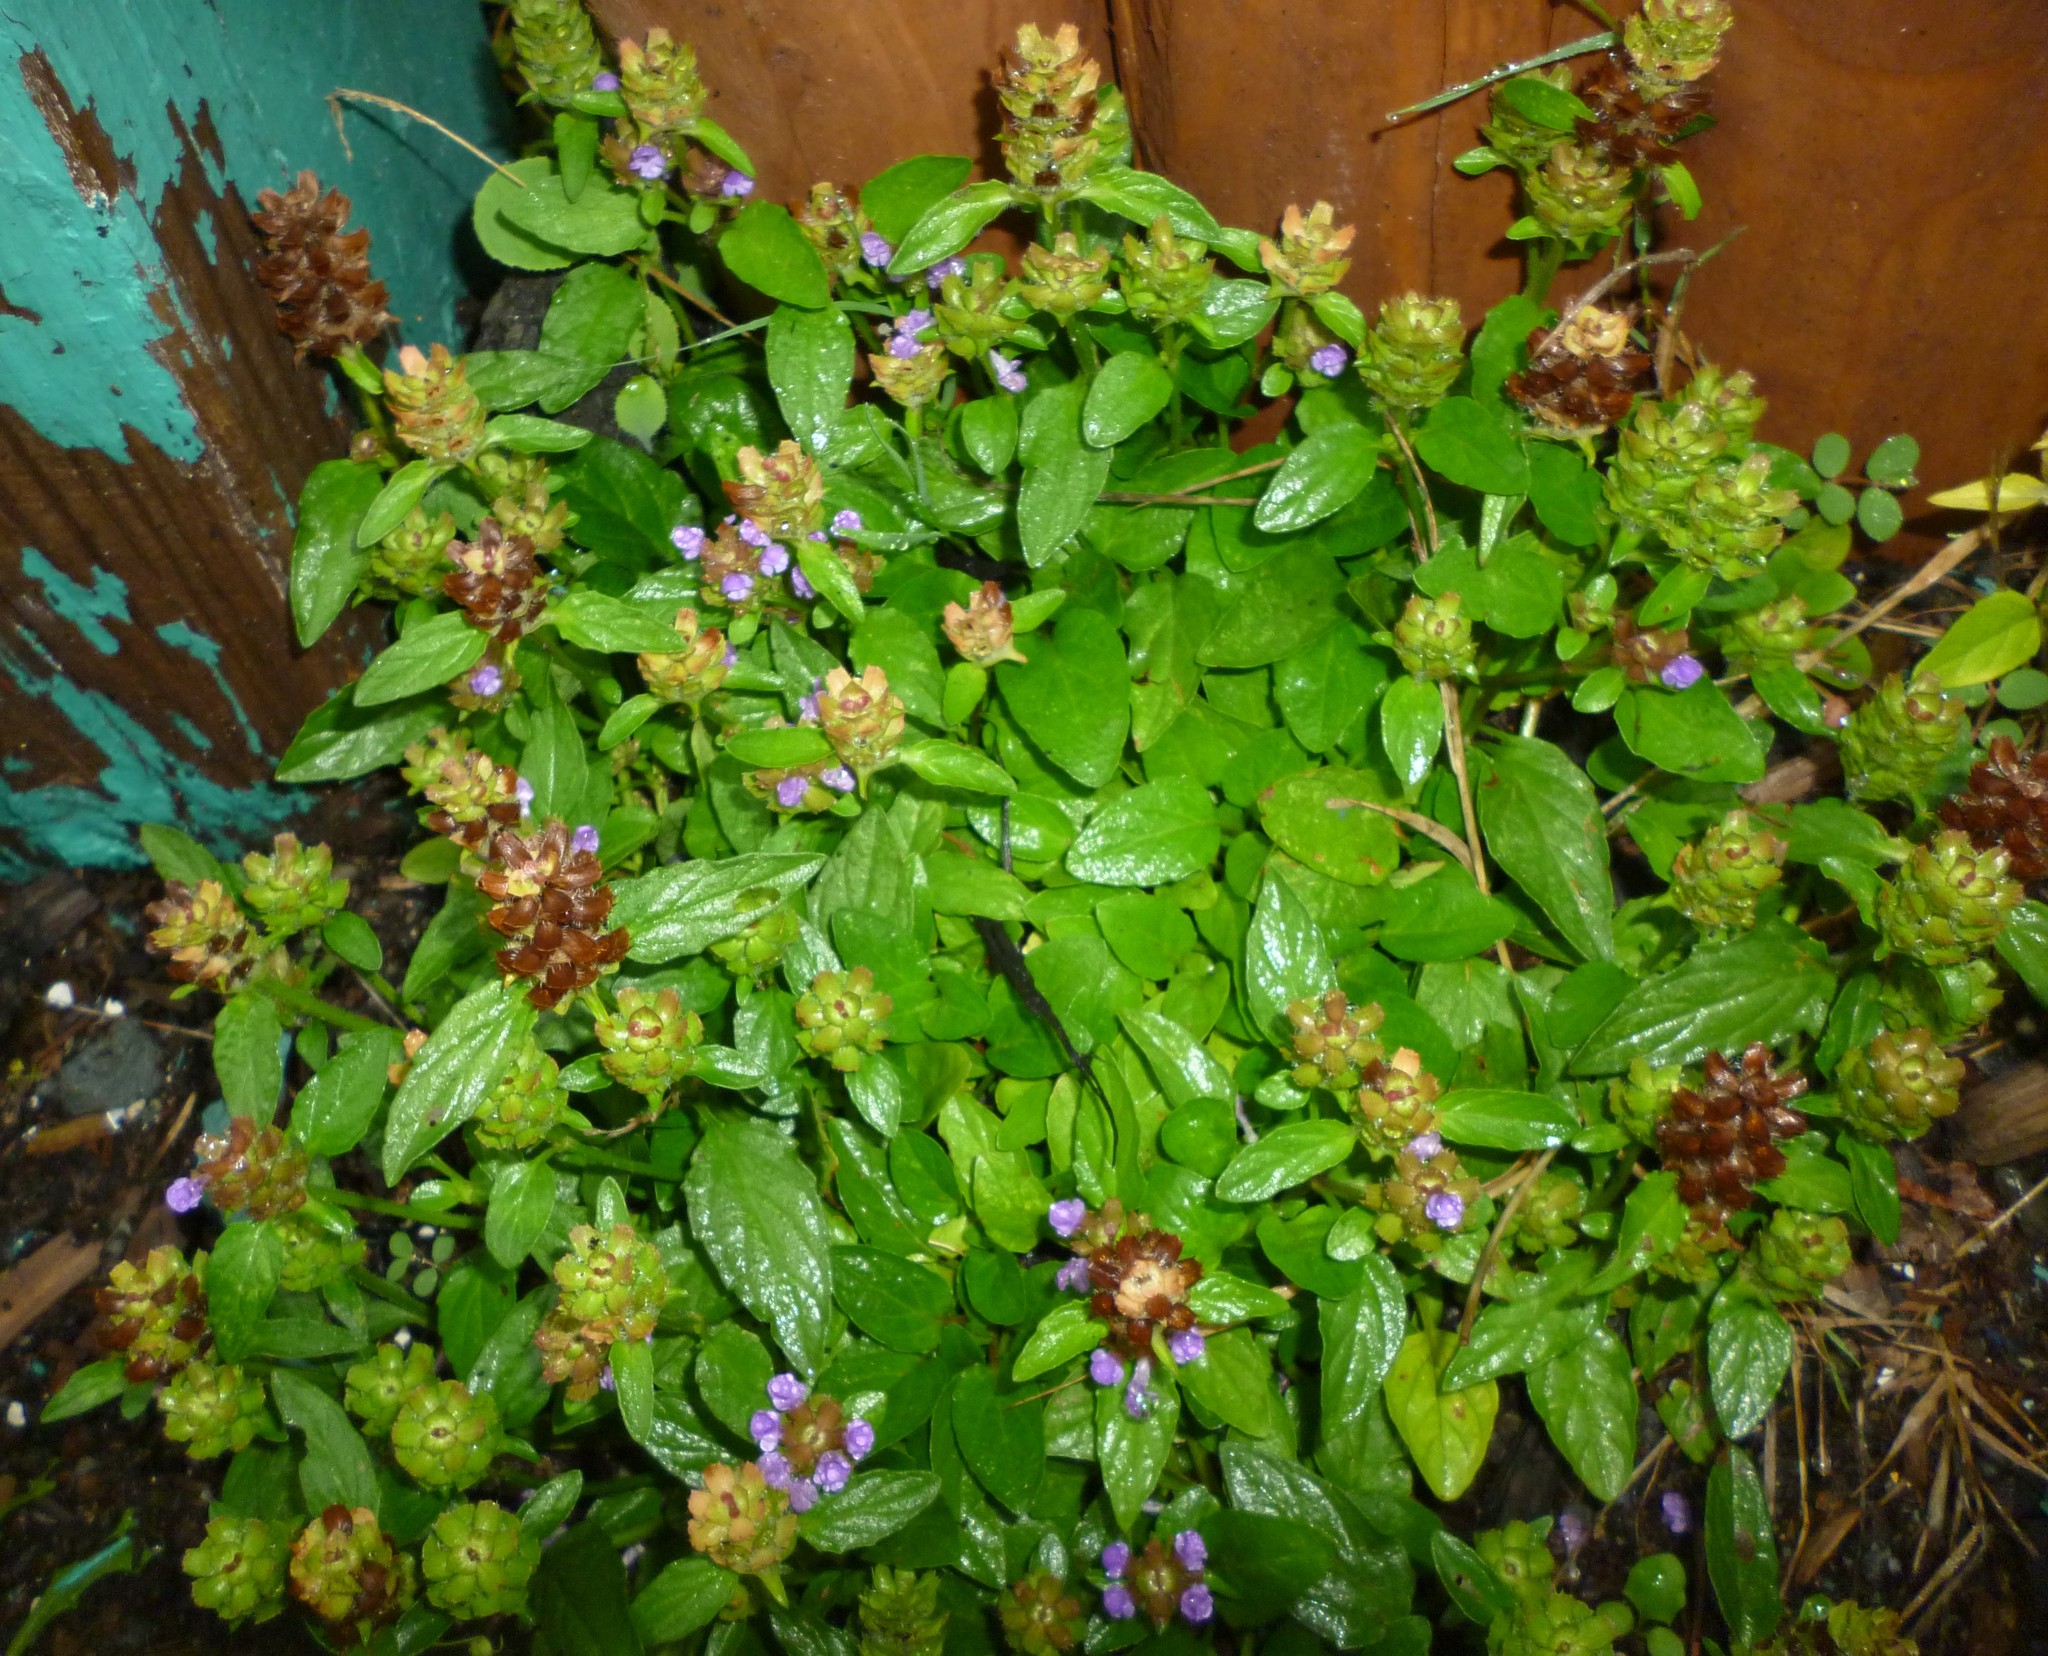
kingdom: Plantae
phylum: Tracheophyta
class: Magnoliopsida
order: Lamiales
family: Lamiaceae
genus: Prunella
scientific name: Prunella vulgaris
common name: Heal-all
